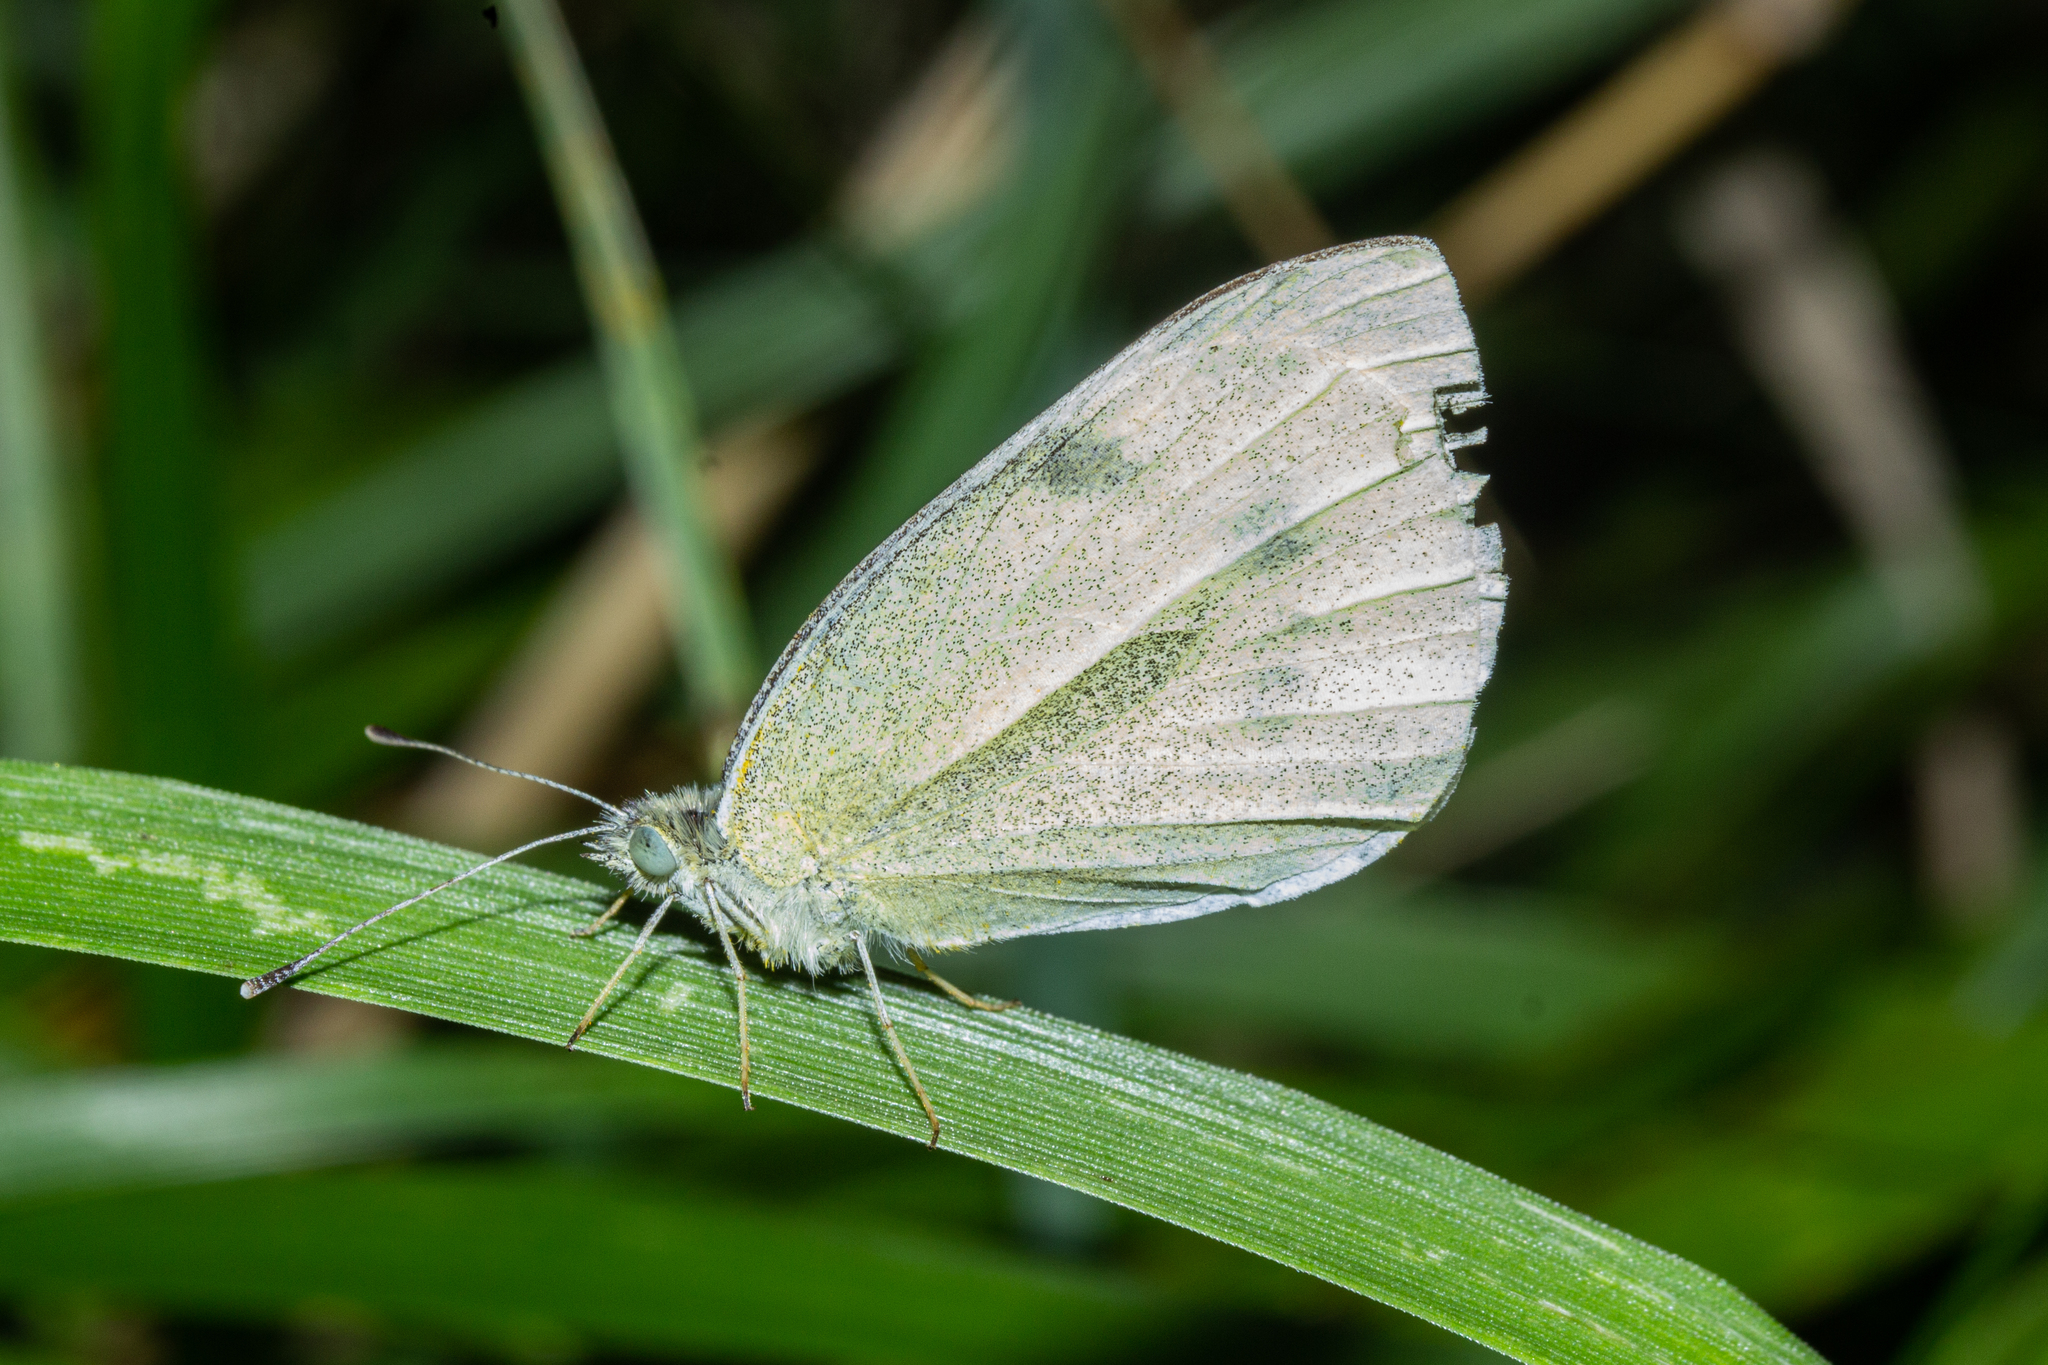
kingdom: Animalia
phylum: Arthropoda
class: Insecta
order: Lepidoptera
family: Pieridae
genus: Pieris
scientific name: Pieris rapae
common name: Small white
